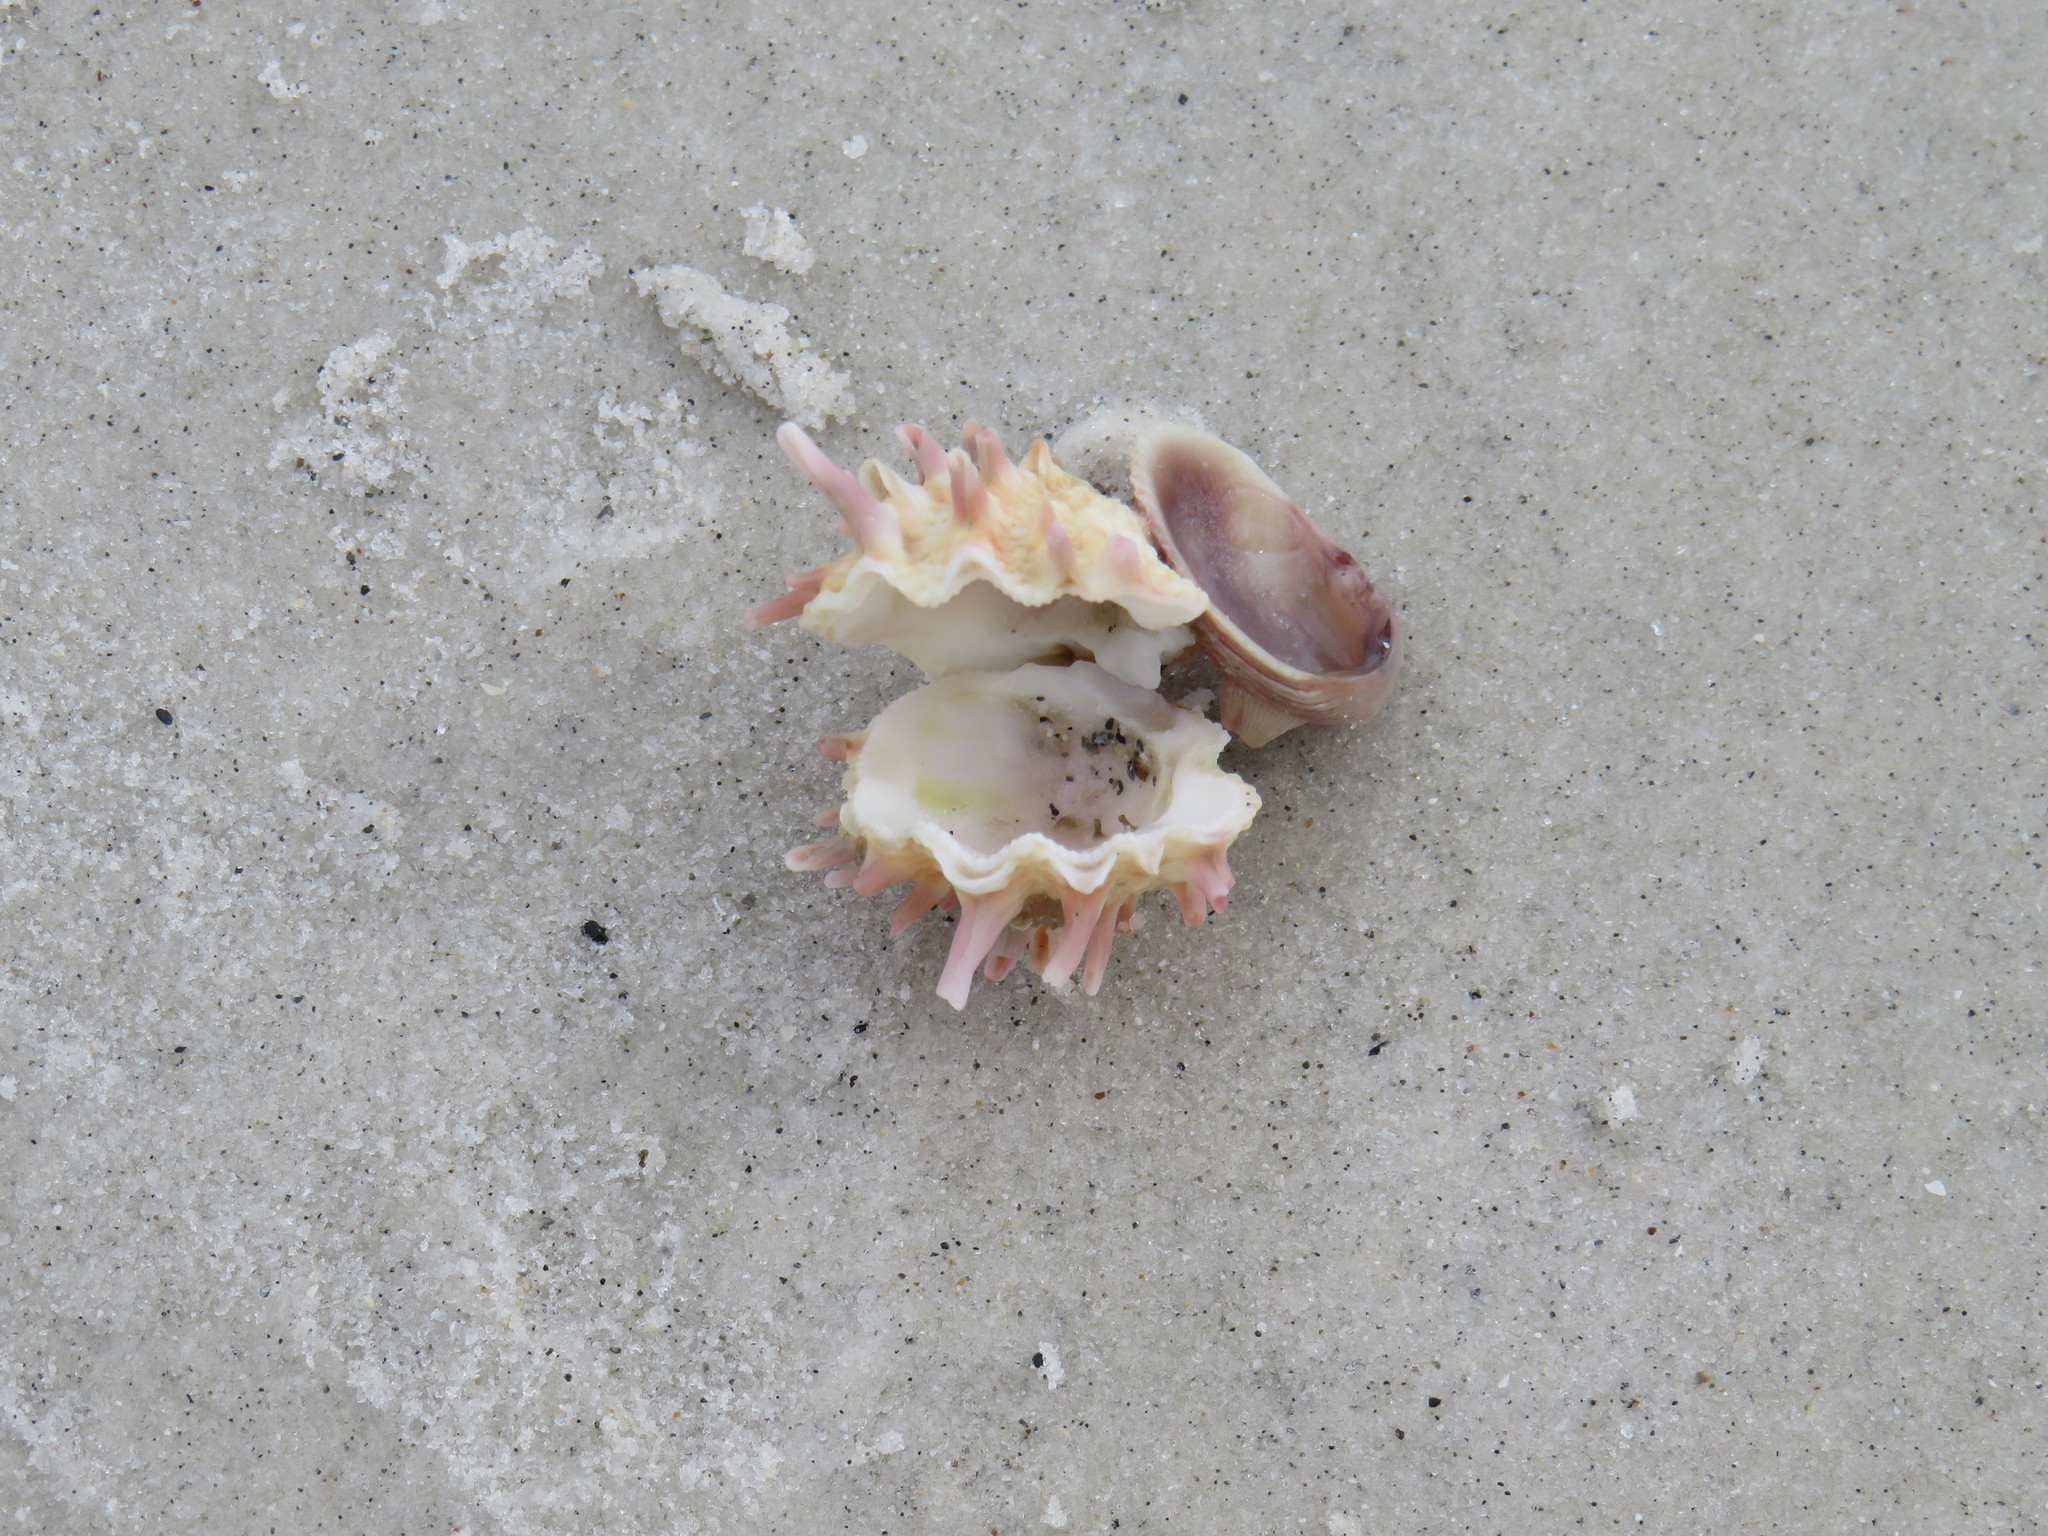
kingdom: Animalia
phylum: Mollusca
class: Bivalvia
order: Venerida
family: Chamidae
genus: Arcinella
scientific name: Arcinella cornuta
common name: Florida spiny jewel box
